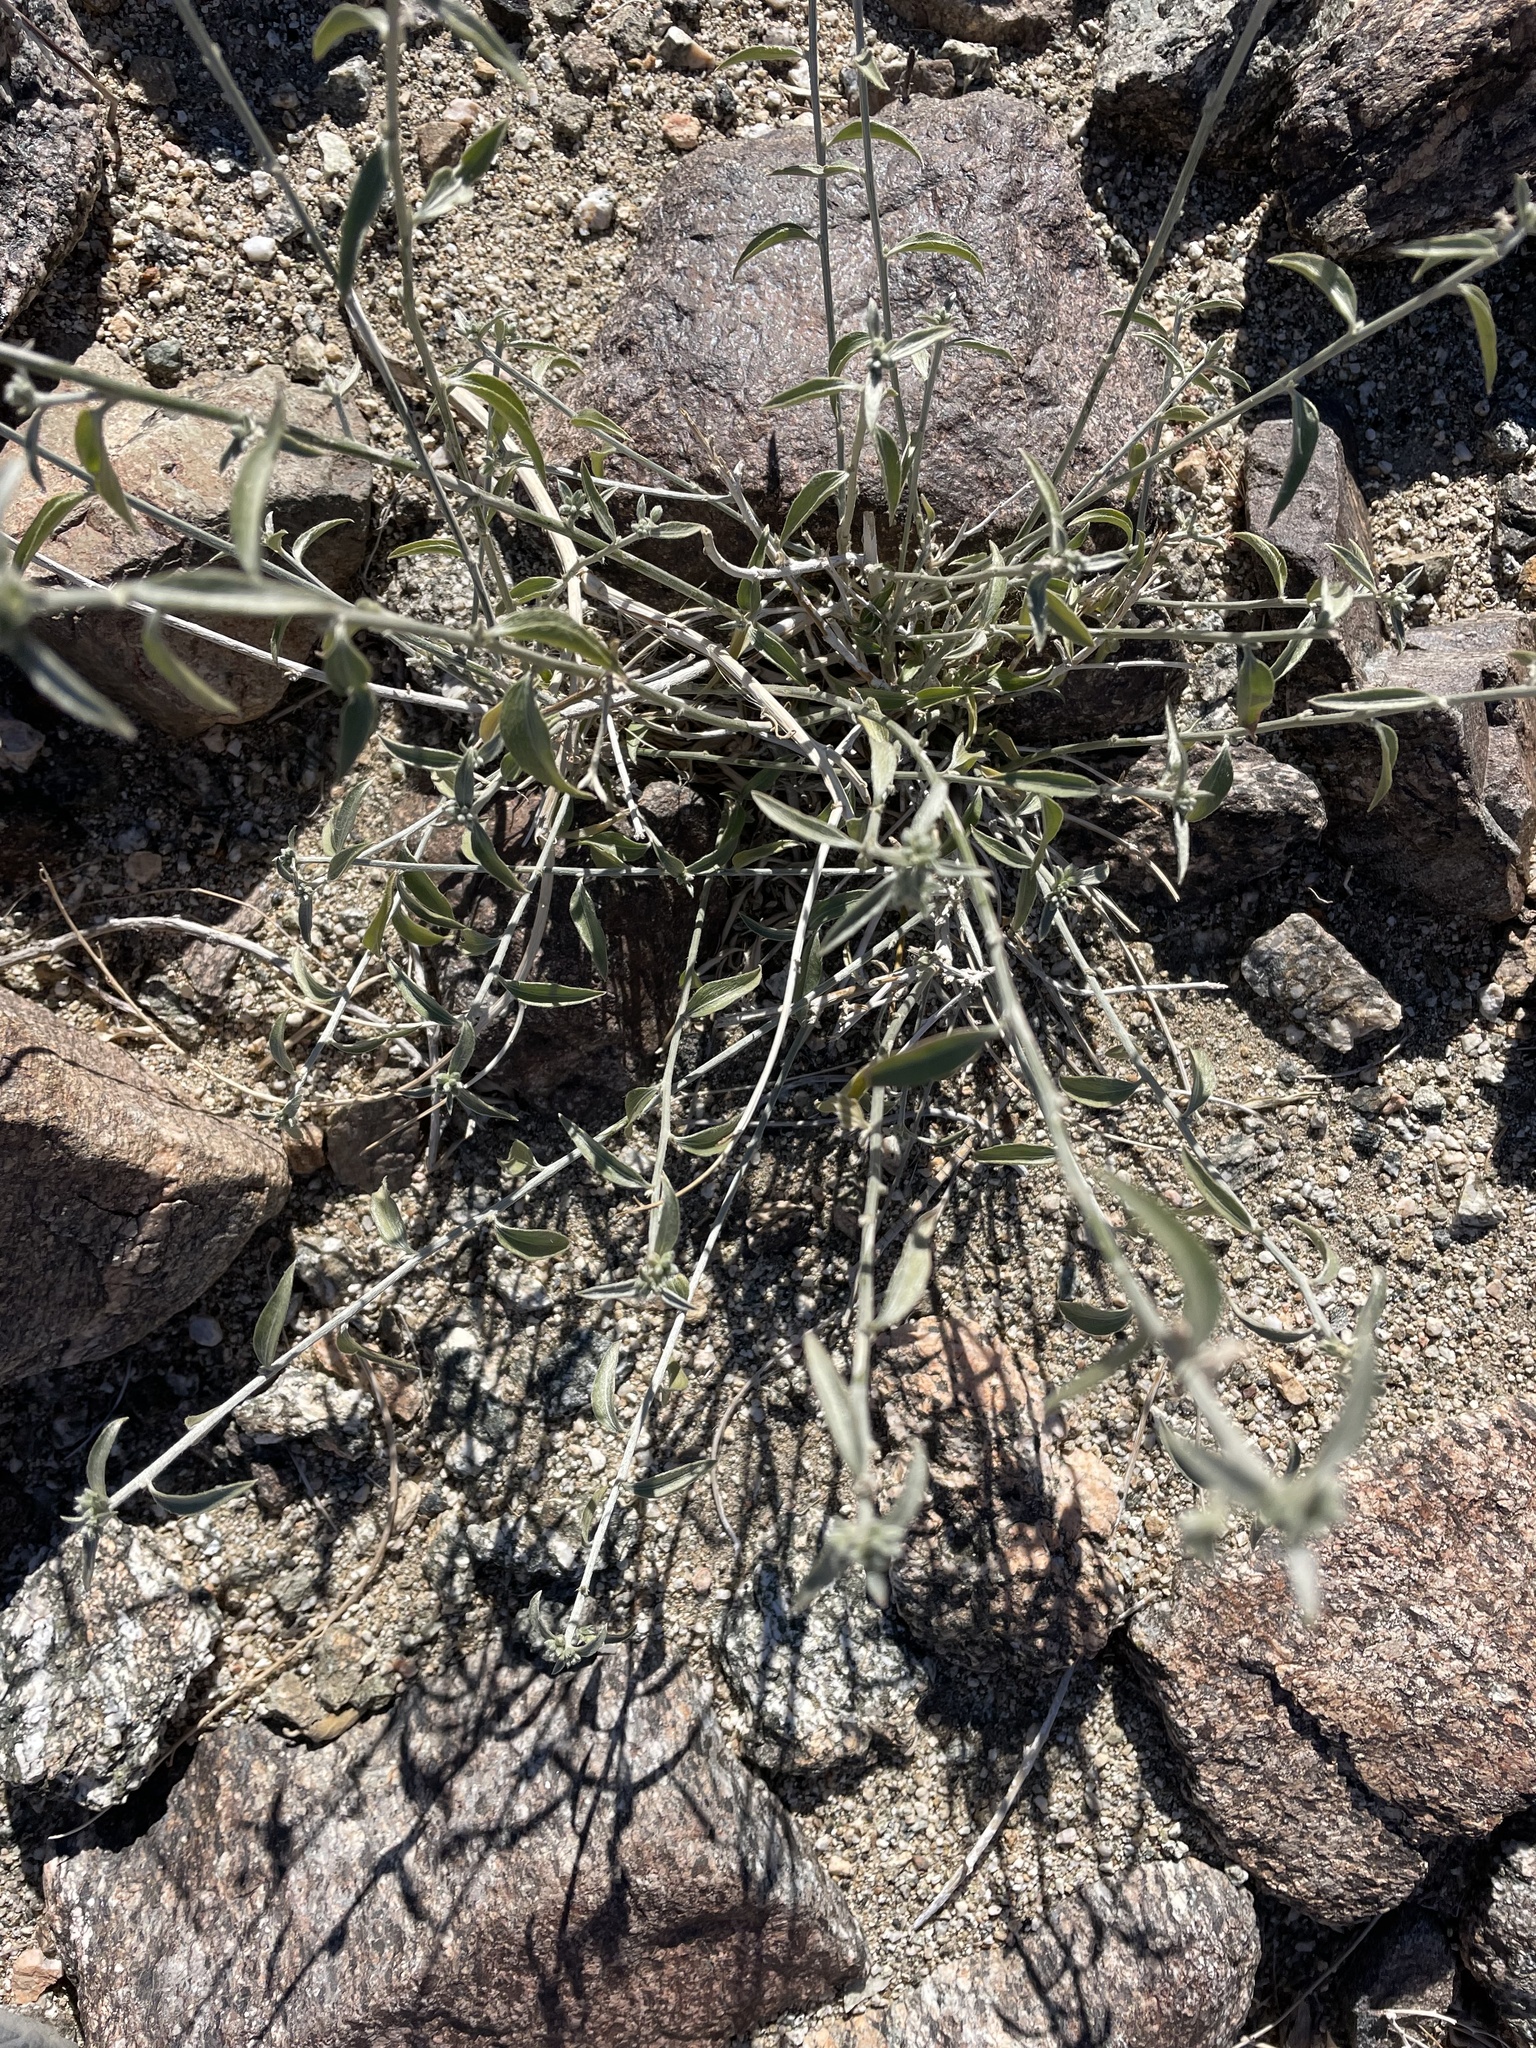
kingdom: Plantae
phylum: Tracheophyta
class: Magnoliopsida
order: Malpighiales
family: Euphorbiaceae
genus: Ditaxis
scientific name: Ditaxis lanceolata
